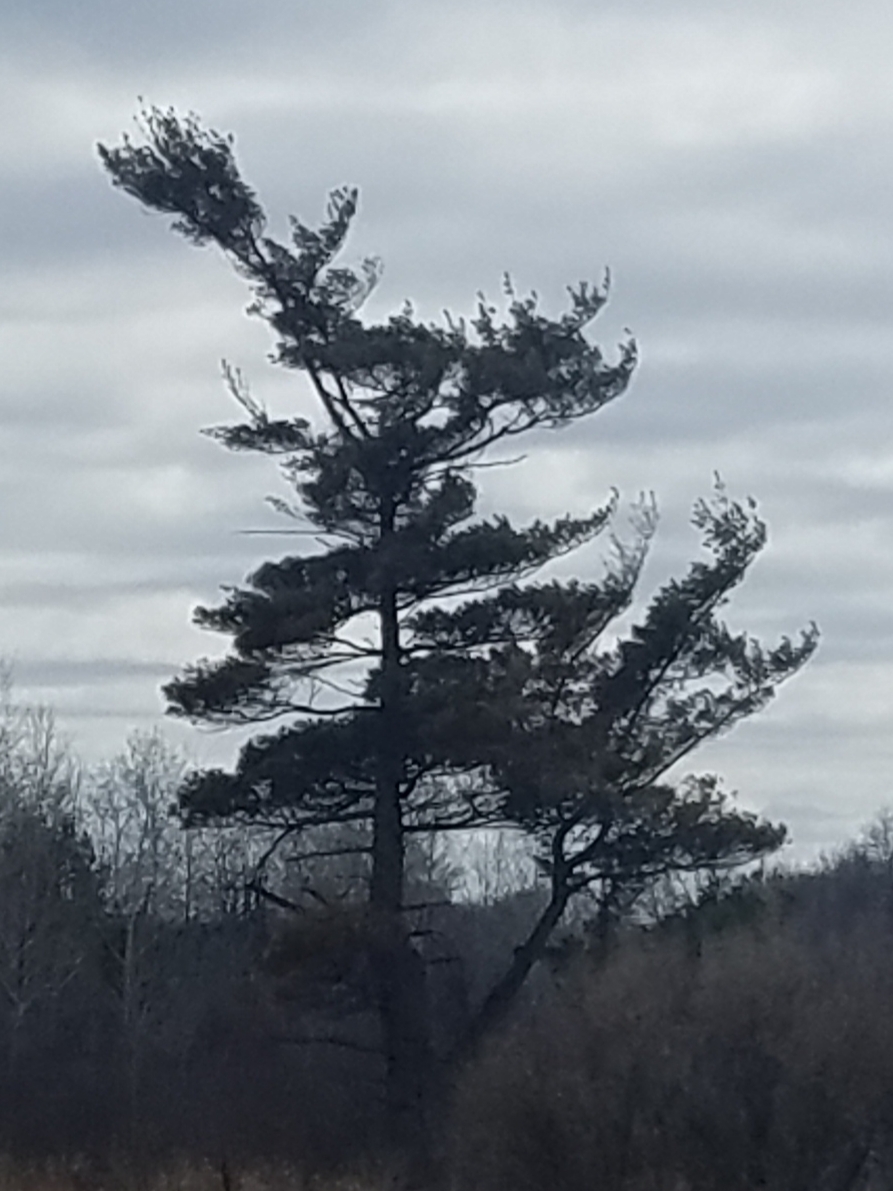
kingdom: Plantae
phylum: Tracheophyta
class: Pinopsida
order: Pinales
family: Pinaceae
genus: Pinus
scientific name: Pinus strobus
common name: Weymouth pine
